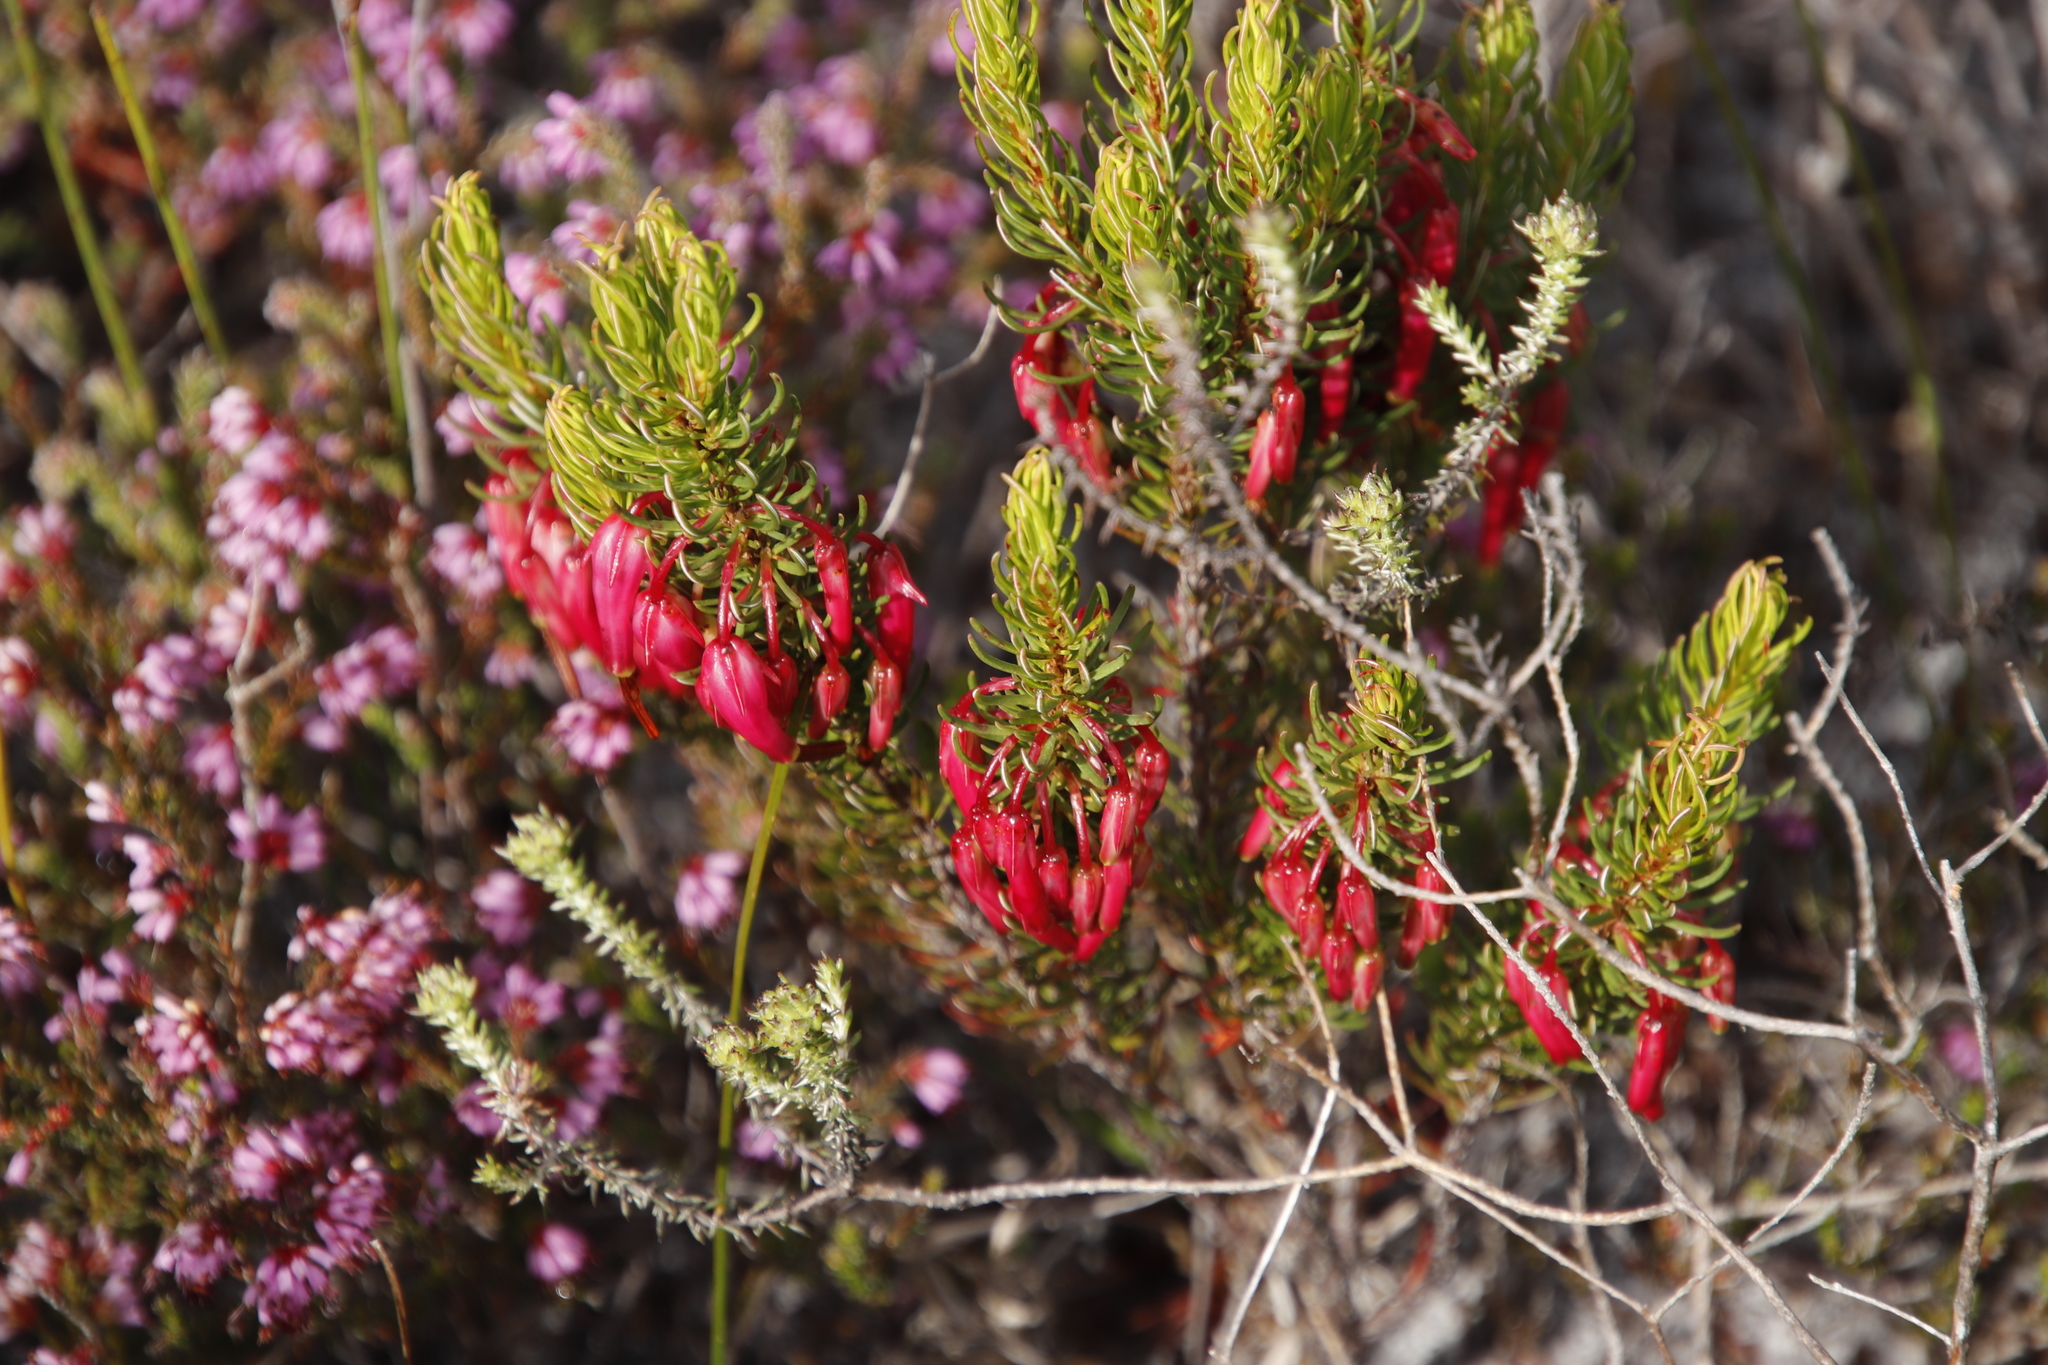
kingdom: Plantae
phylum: Tracheophyta
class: Magnoliopsida
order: Ericales
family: Ericaceae
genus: Erica
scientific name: Erica plukenetii
